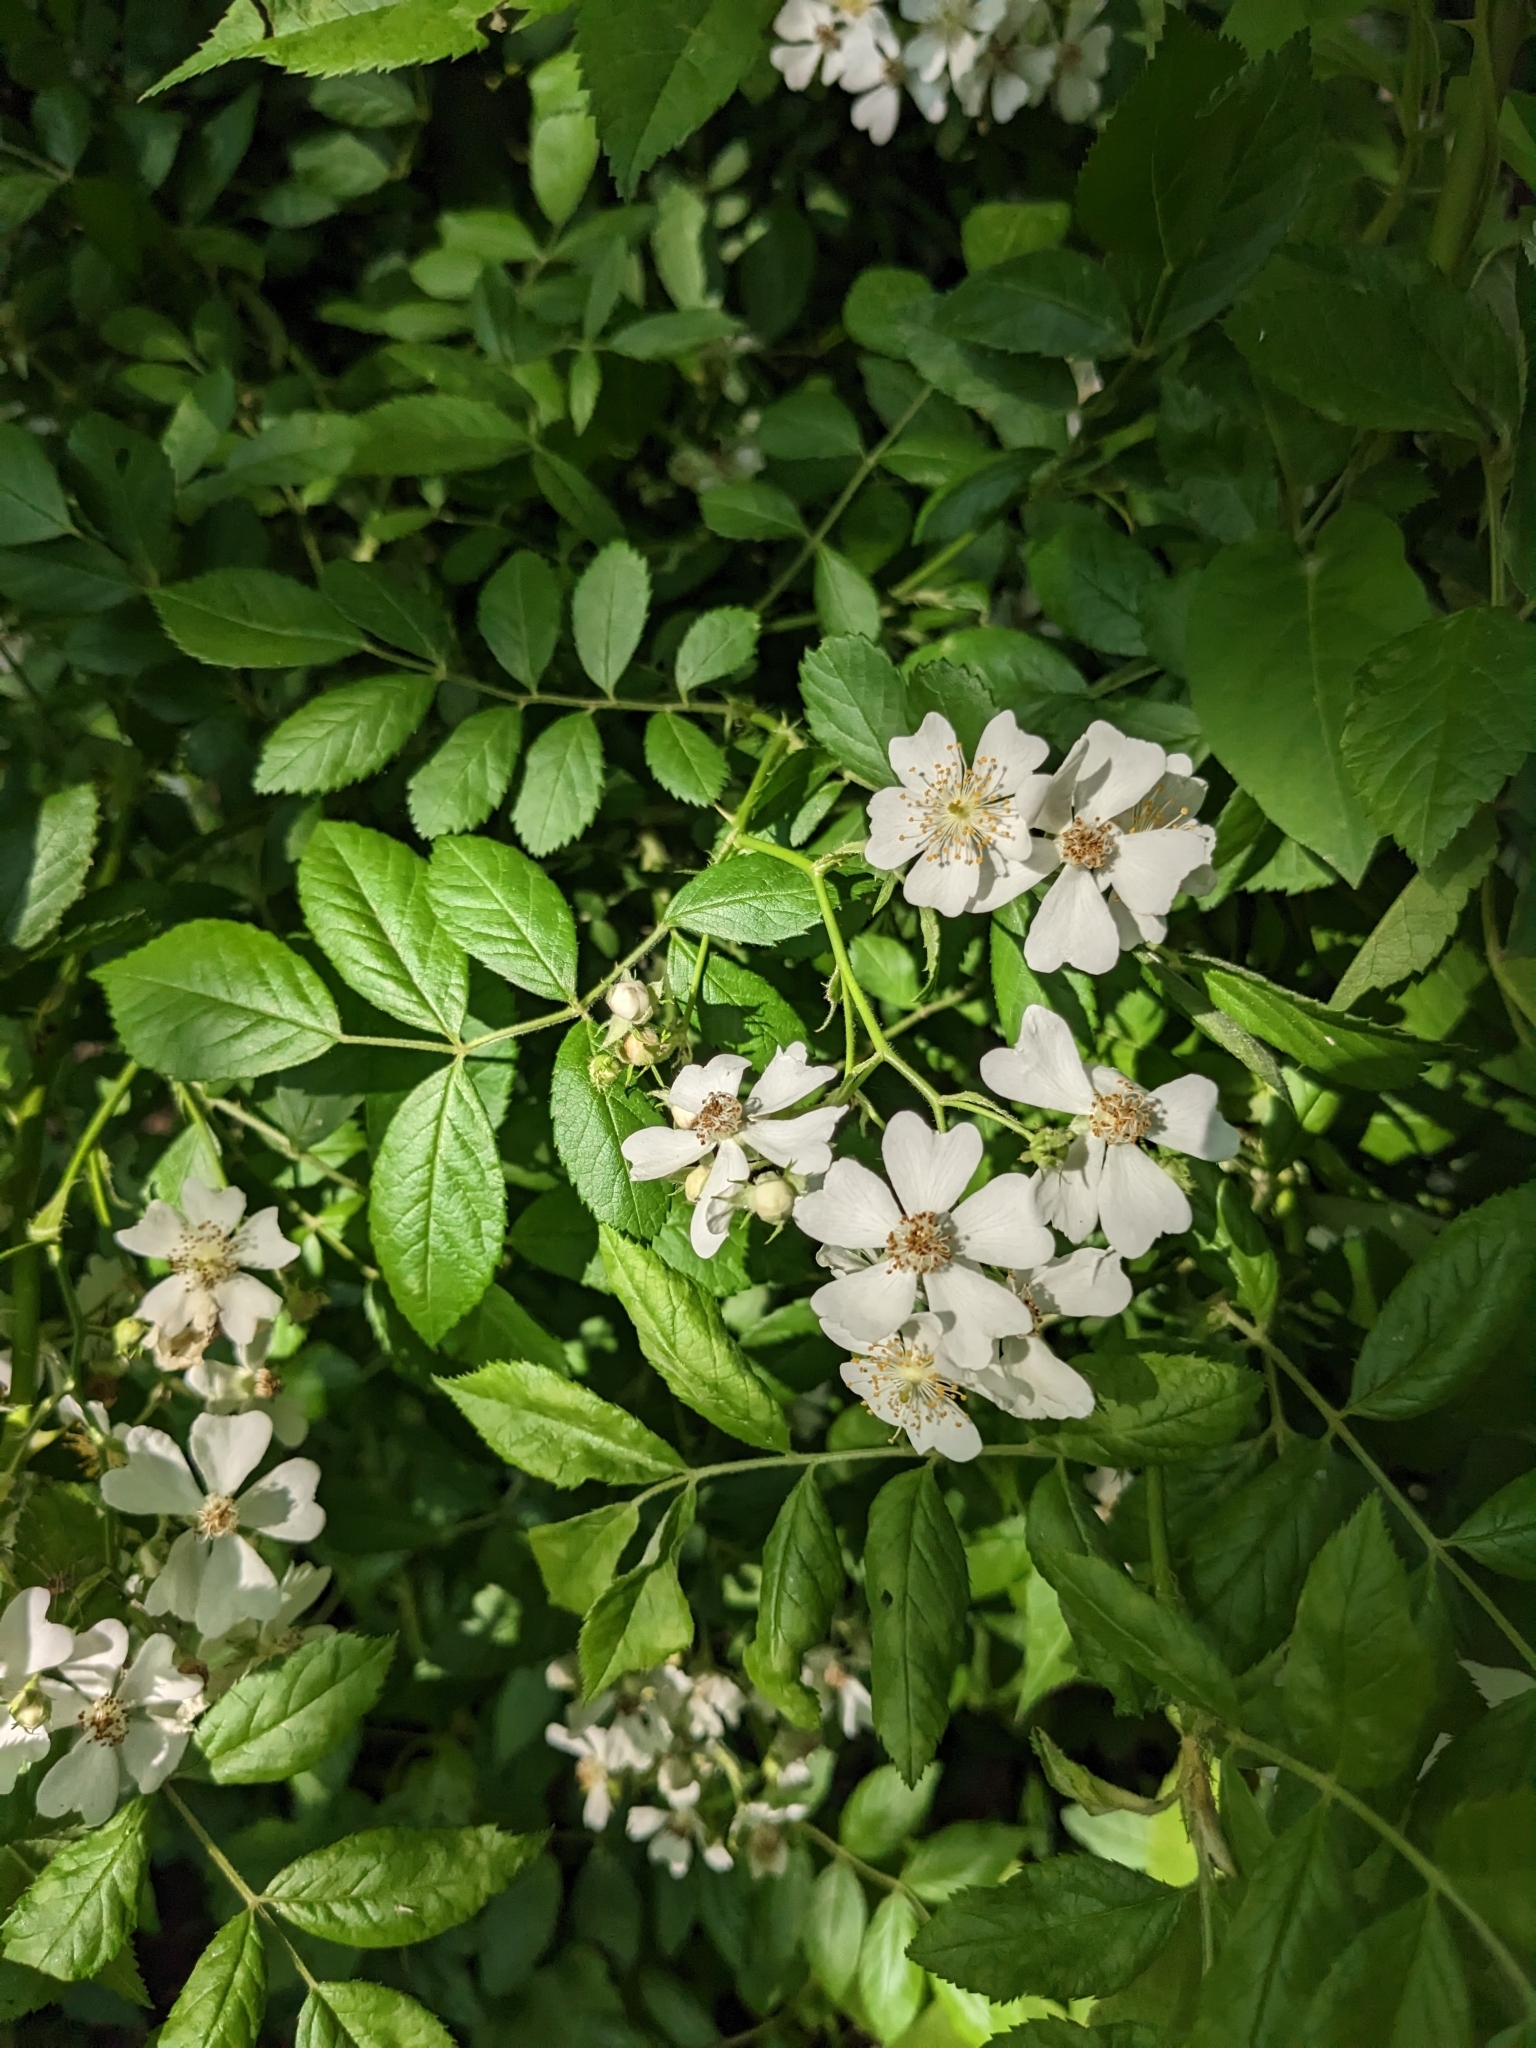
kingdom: Plantae
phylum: Tracheophyta
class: Magnoliopsida
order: Rosales
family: Rosaceae
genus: Rosa
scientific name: Rosa multiflora
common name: Multiflora rose
